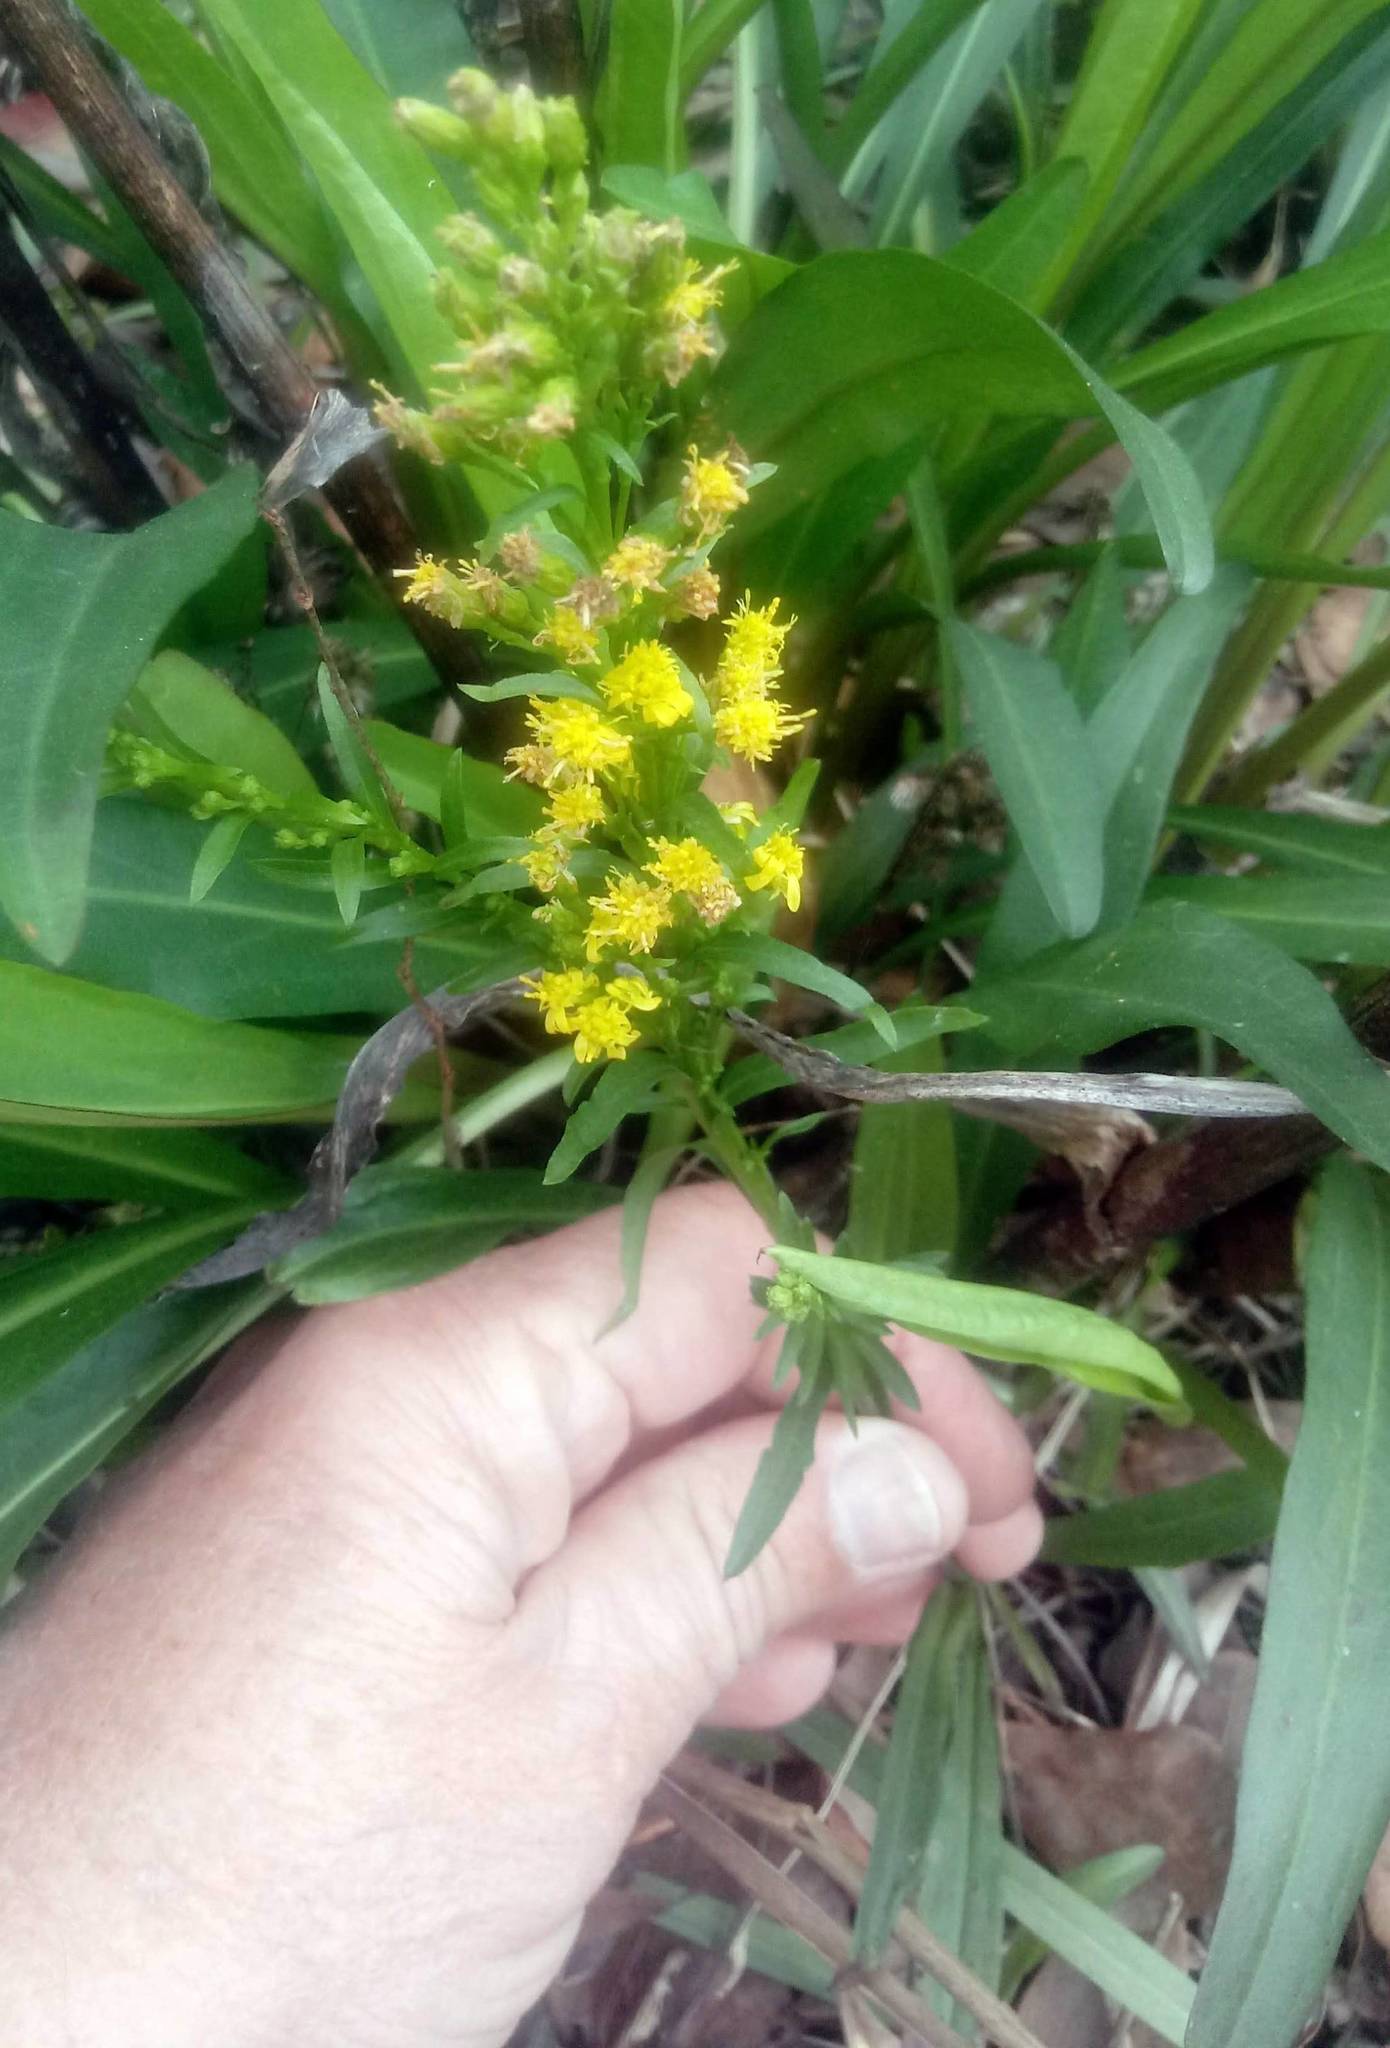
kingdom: Plantae
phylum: Tracheophyta
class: Magnoliopsida
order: Asterales
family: Asteraceae
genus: Solidago
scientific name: Solidago mexicana
